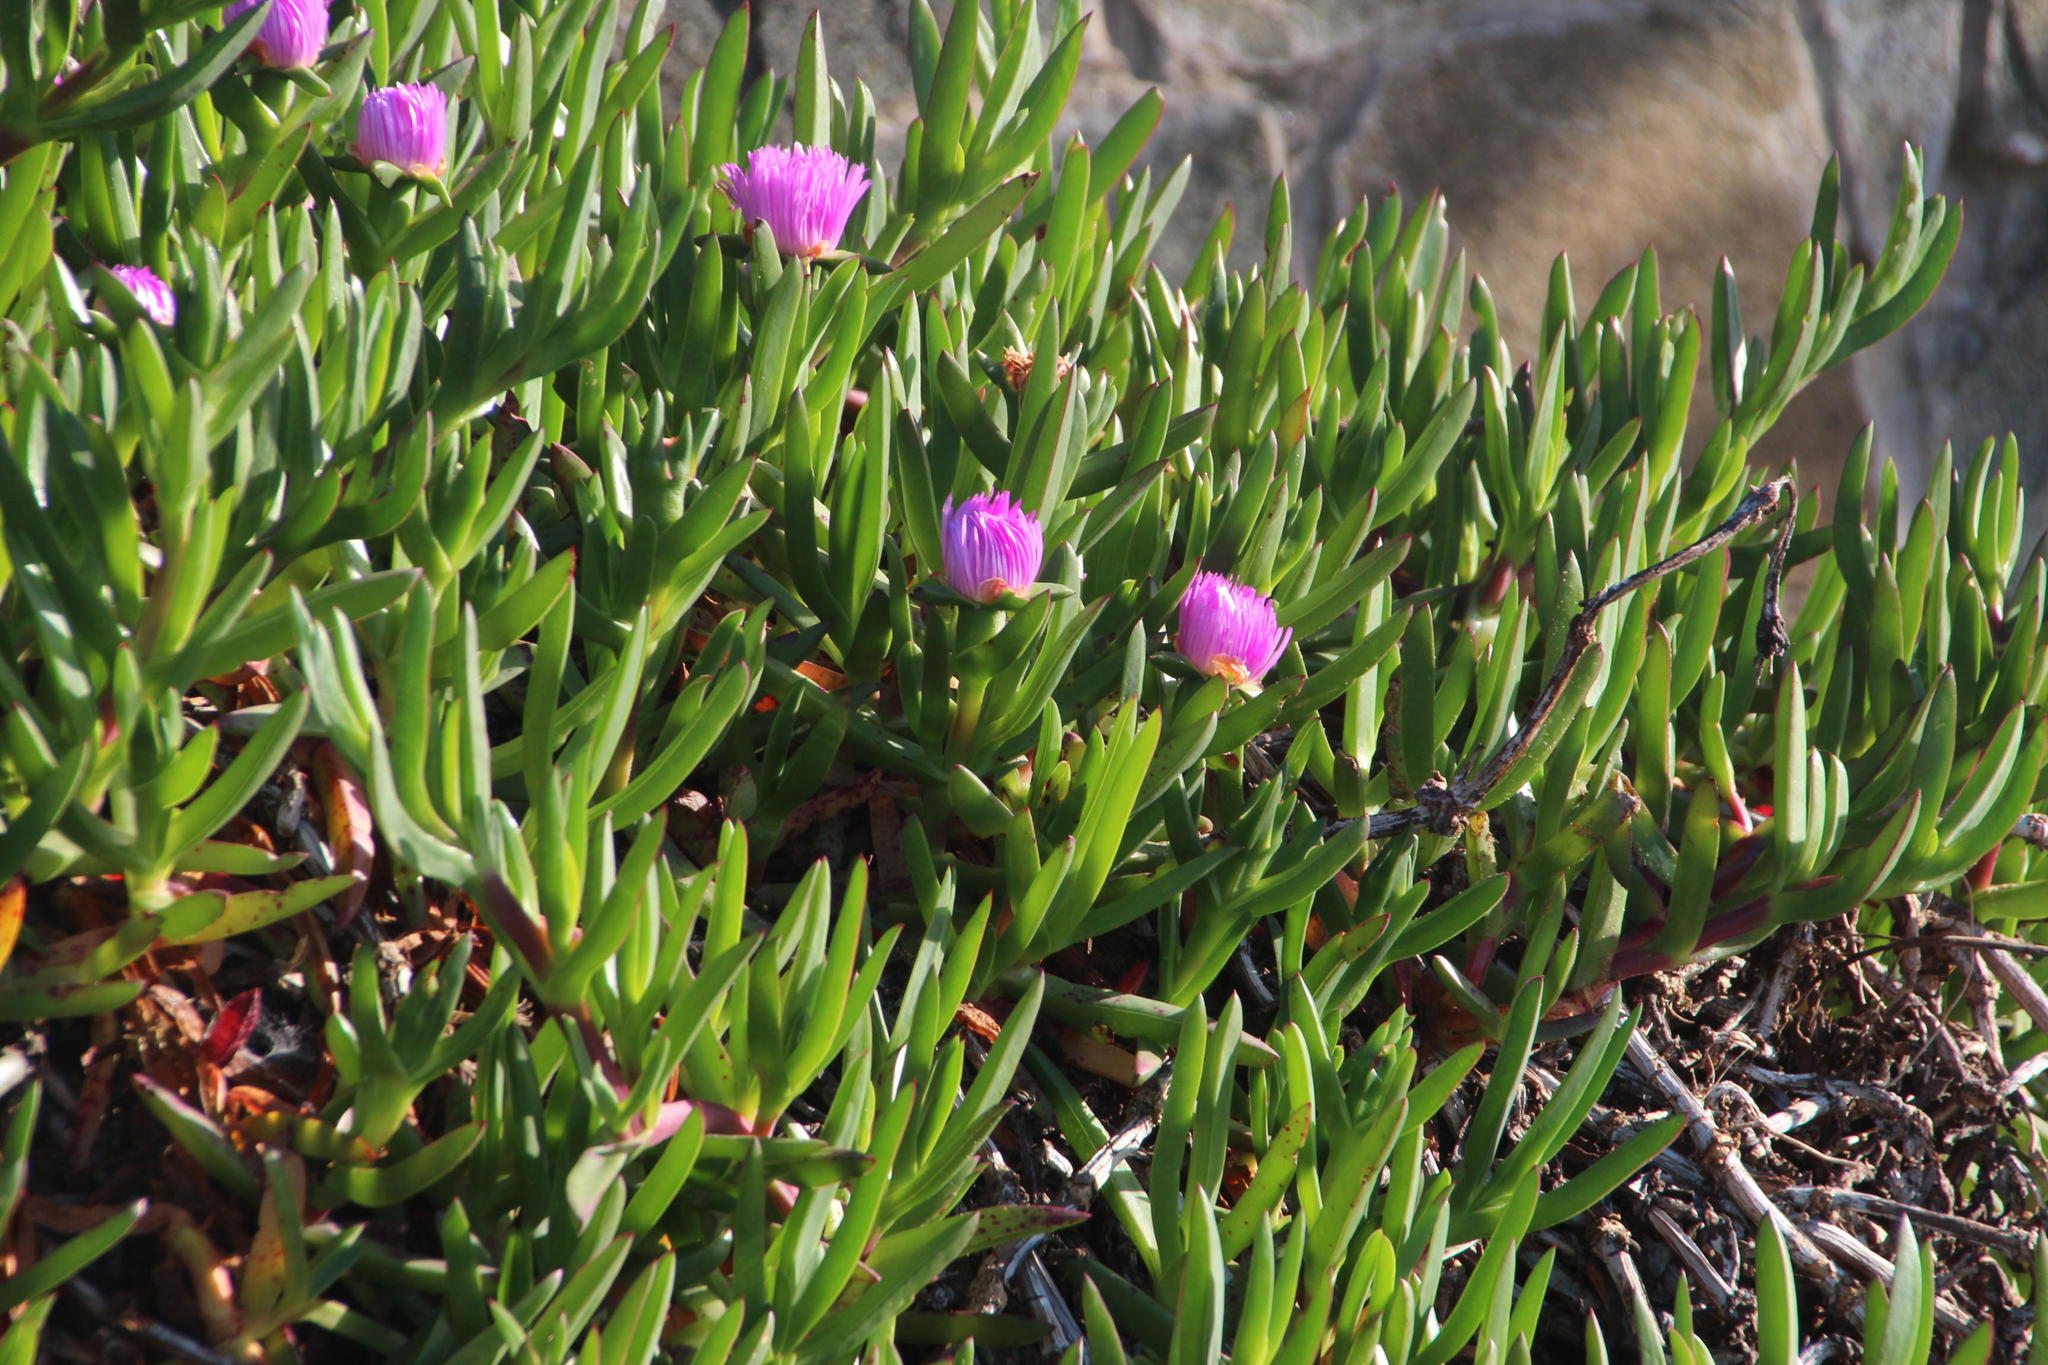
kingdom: Plantae
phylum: Tracheophyta
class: Magnoliopsida
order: Caryophyllales
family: Aizoaceae
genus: Carpobrotus
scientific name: Carpobrotus chilensis
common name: Sea fig
